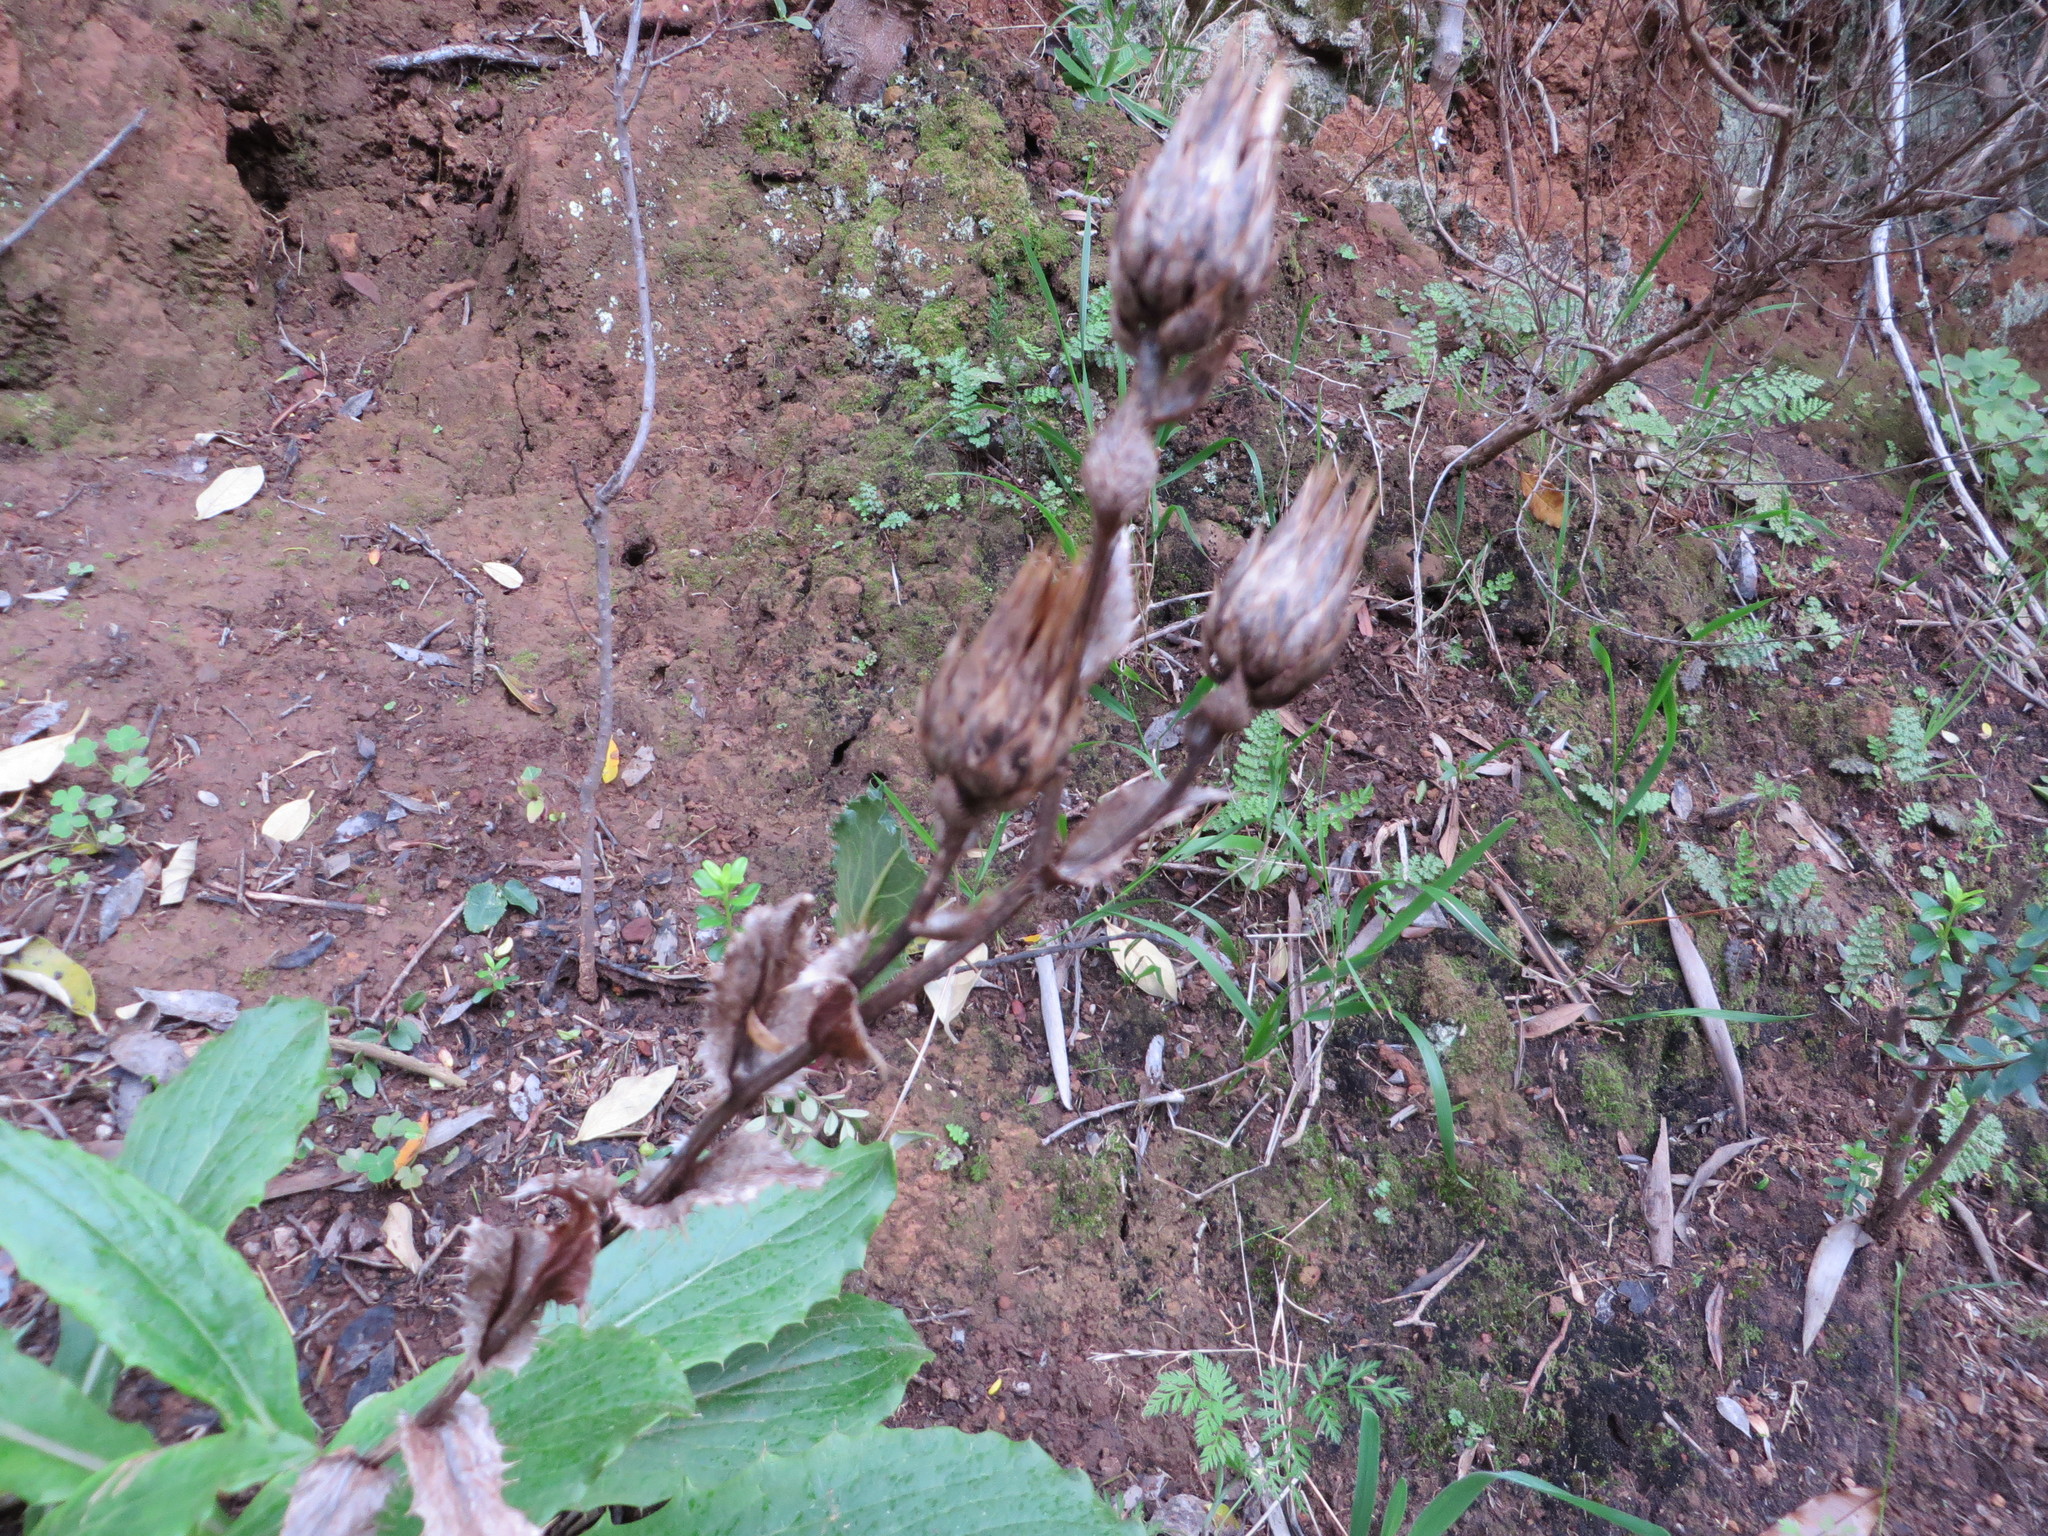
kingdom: Plantae
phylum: Tracheophyta
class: Magnoliopsida
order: Asterales
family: Asteraceae
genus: Berkheya
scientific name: Berkheya herbacea
